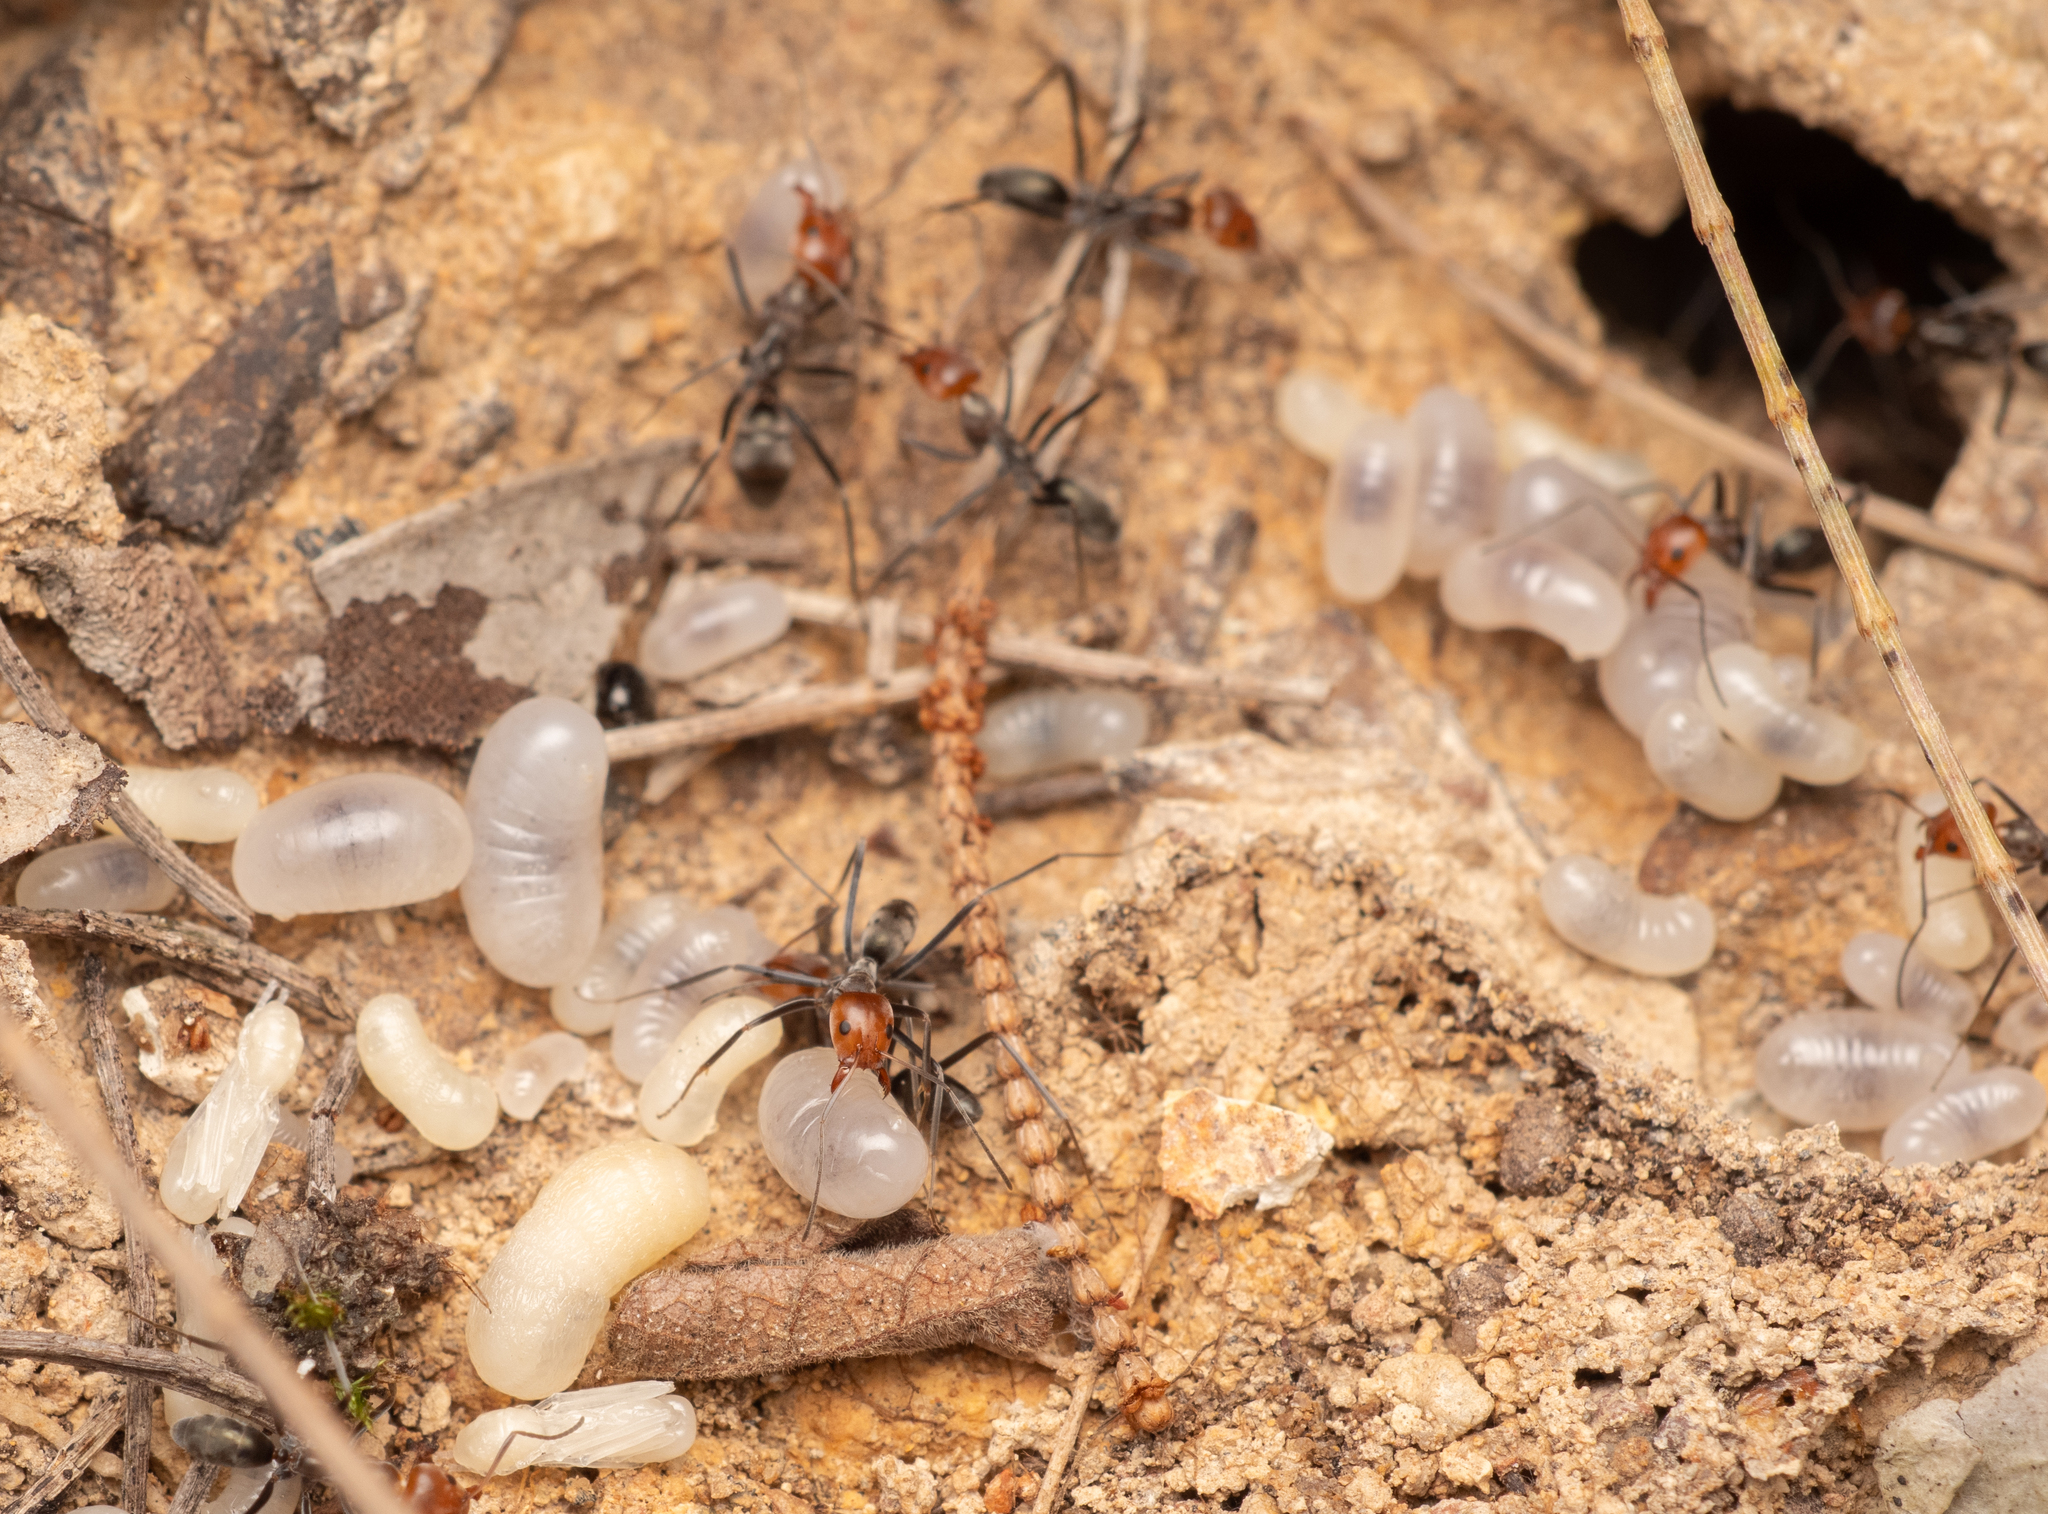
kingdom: Animalia
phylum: Arthropoda
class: Insecta
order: Hymenoptera
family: Formicidae
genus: Iridomyrmex
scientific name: Iridomyrmex
